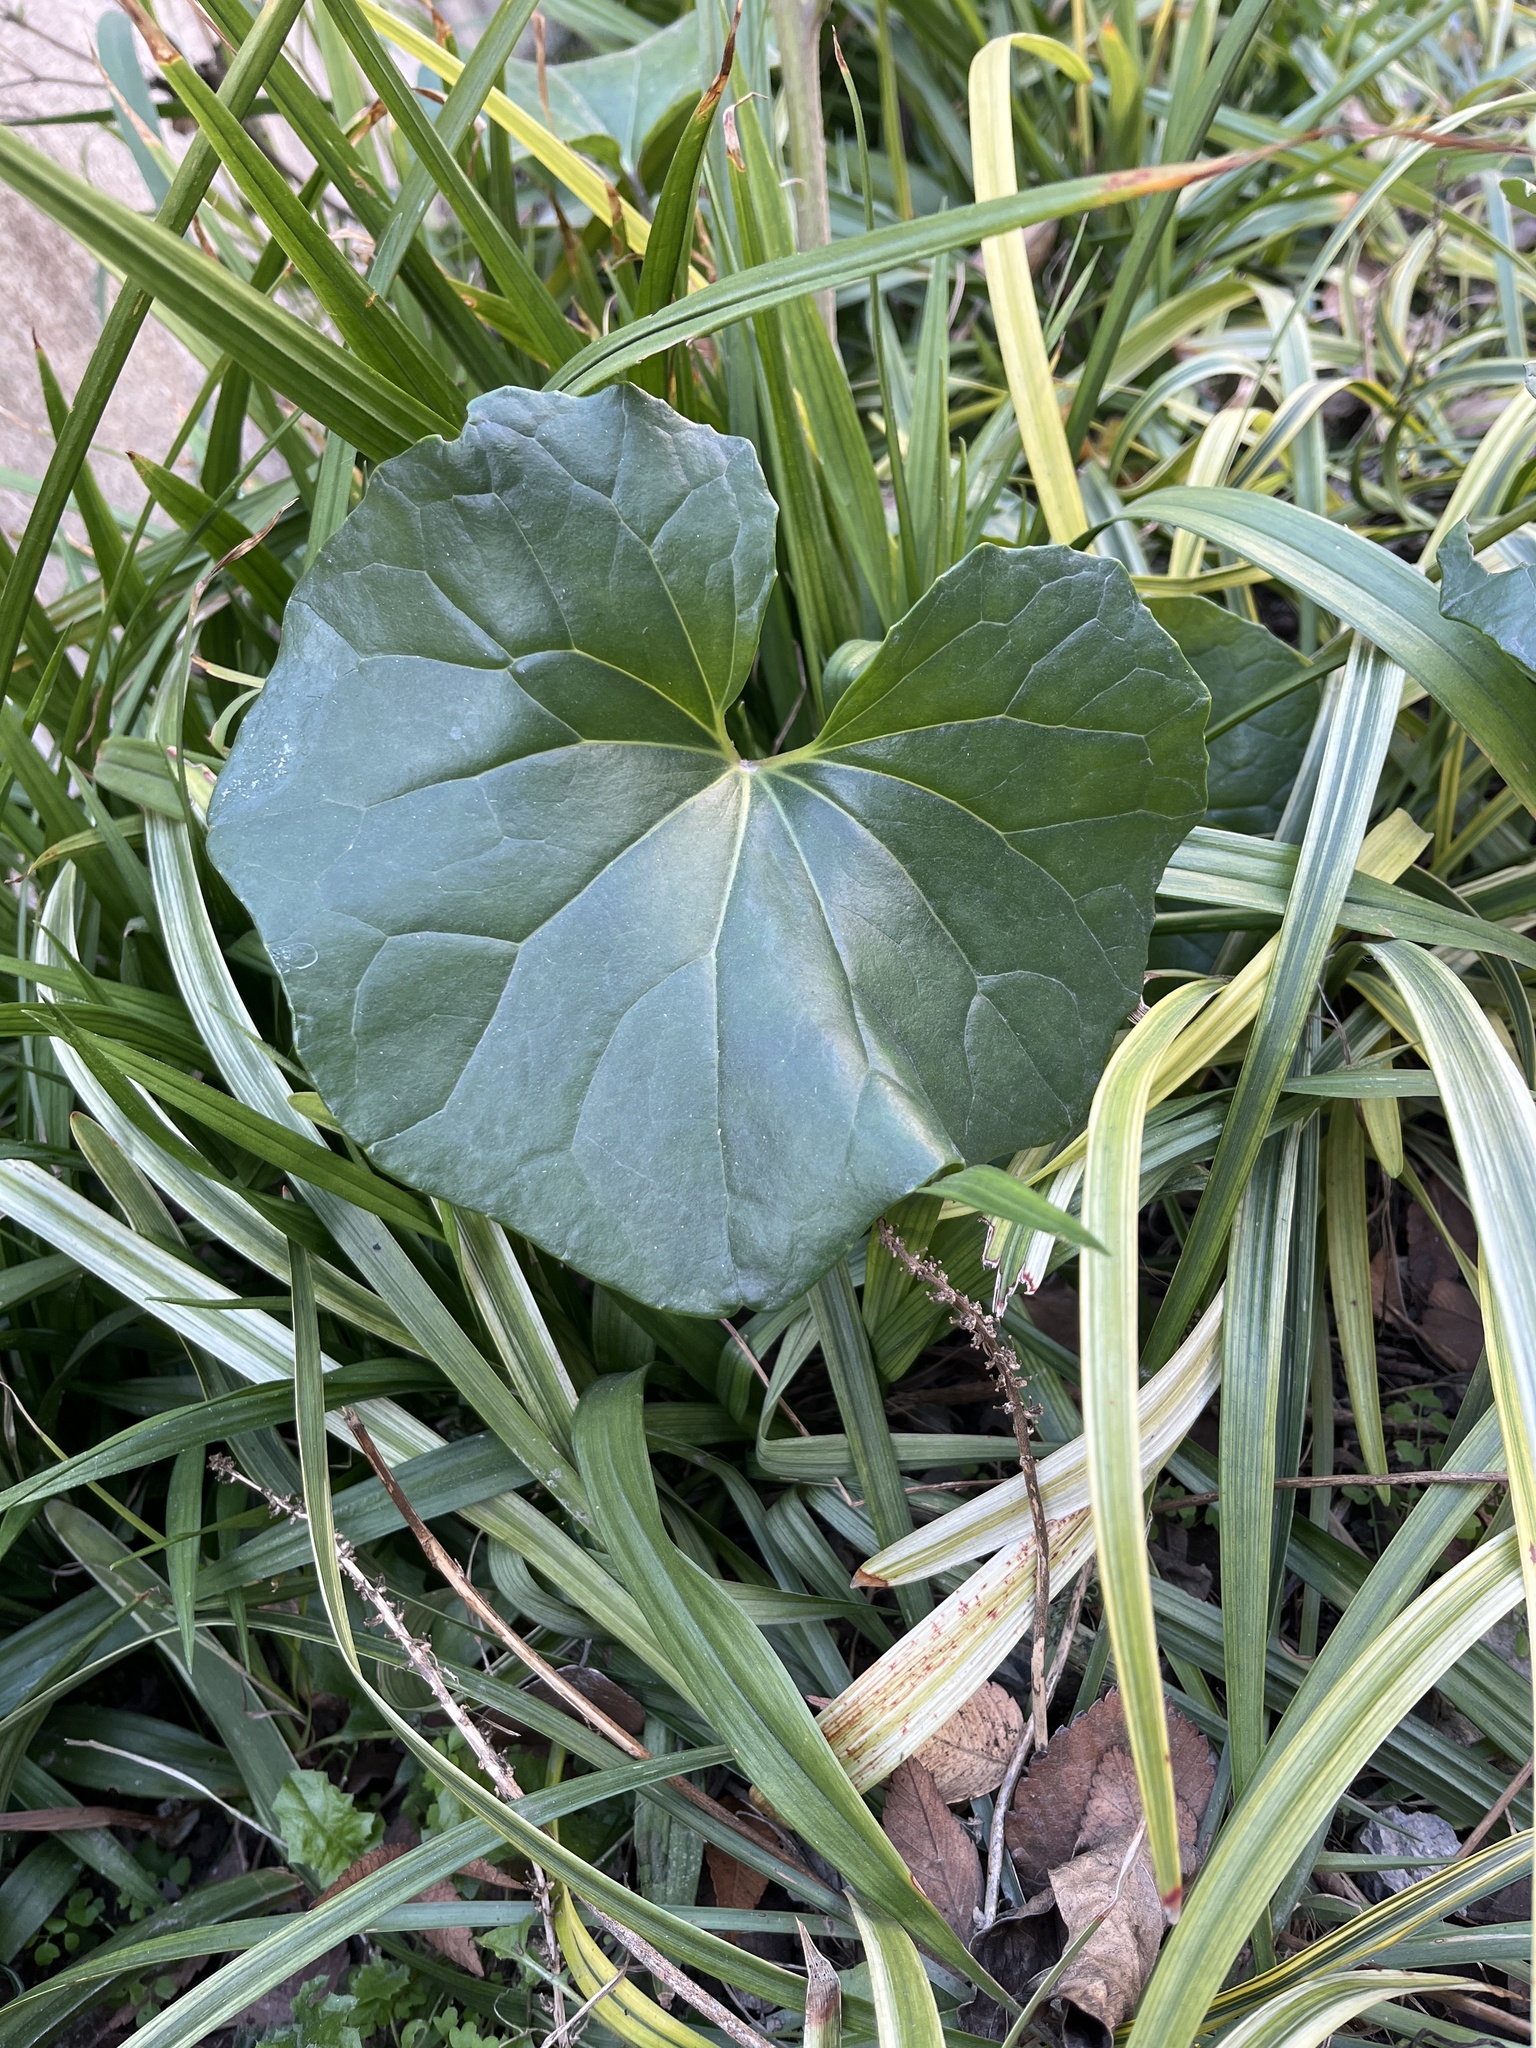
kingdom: Plantae
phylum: Tracheophyta
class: Magnoliopsida
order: Asterales
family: Asteraceae
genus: Farfugium
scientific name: Farfugium japonicum
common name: Leopardplant
